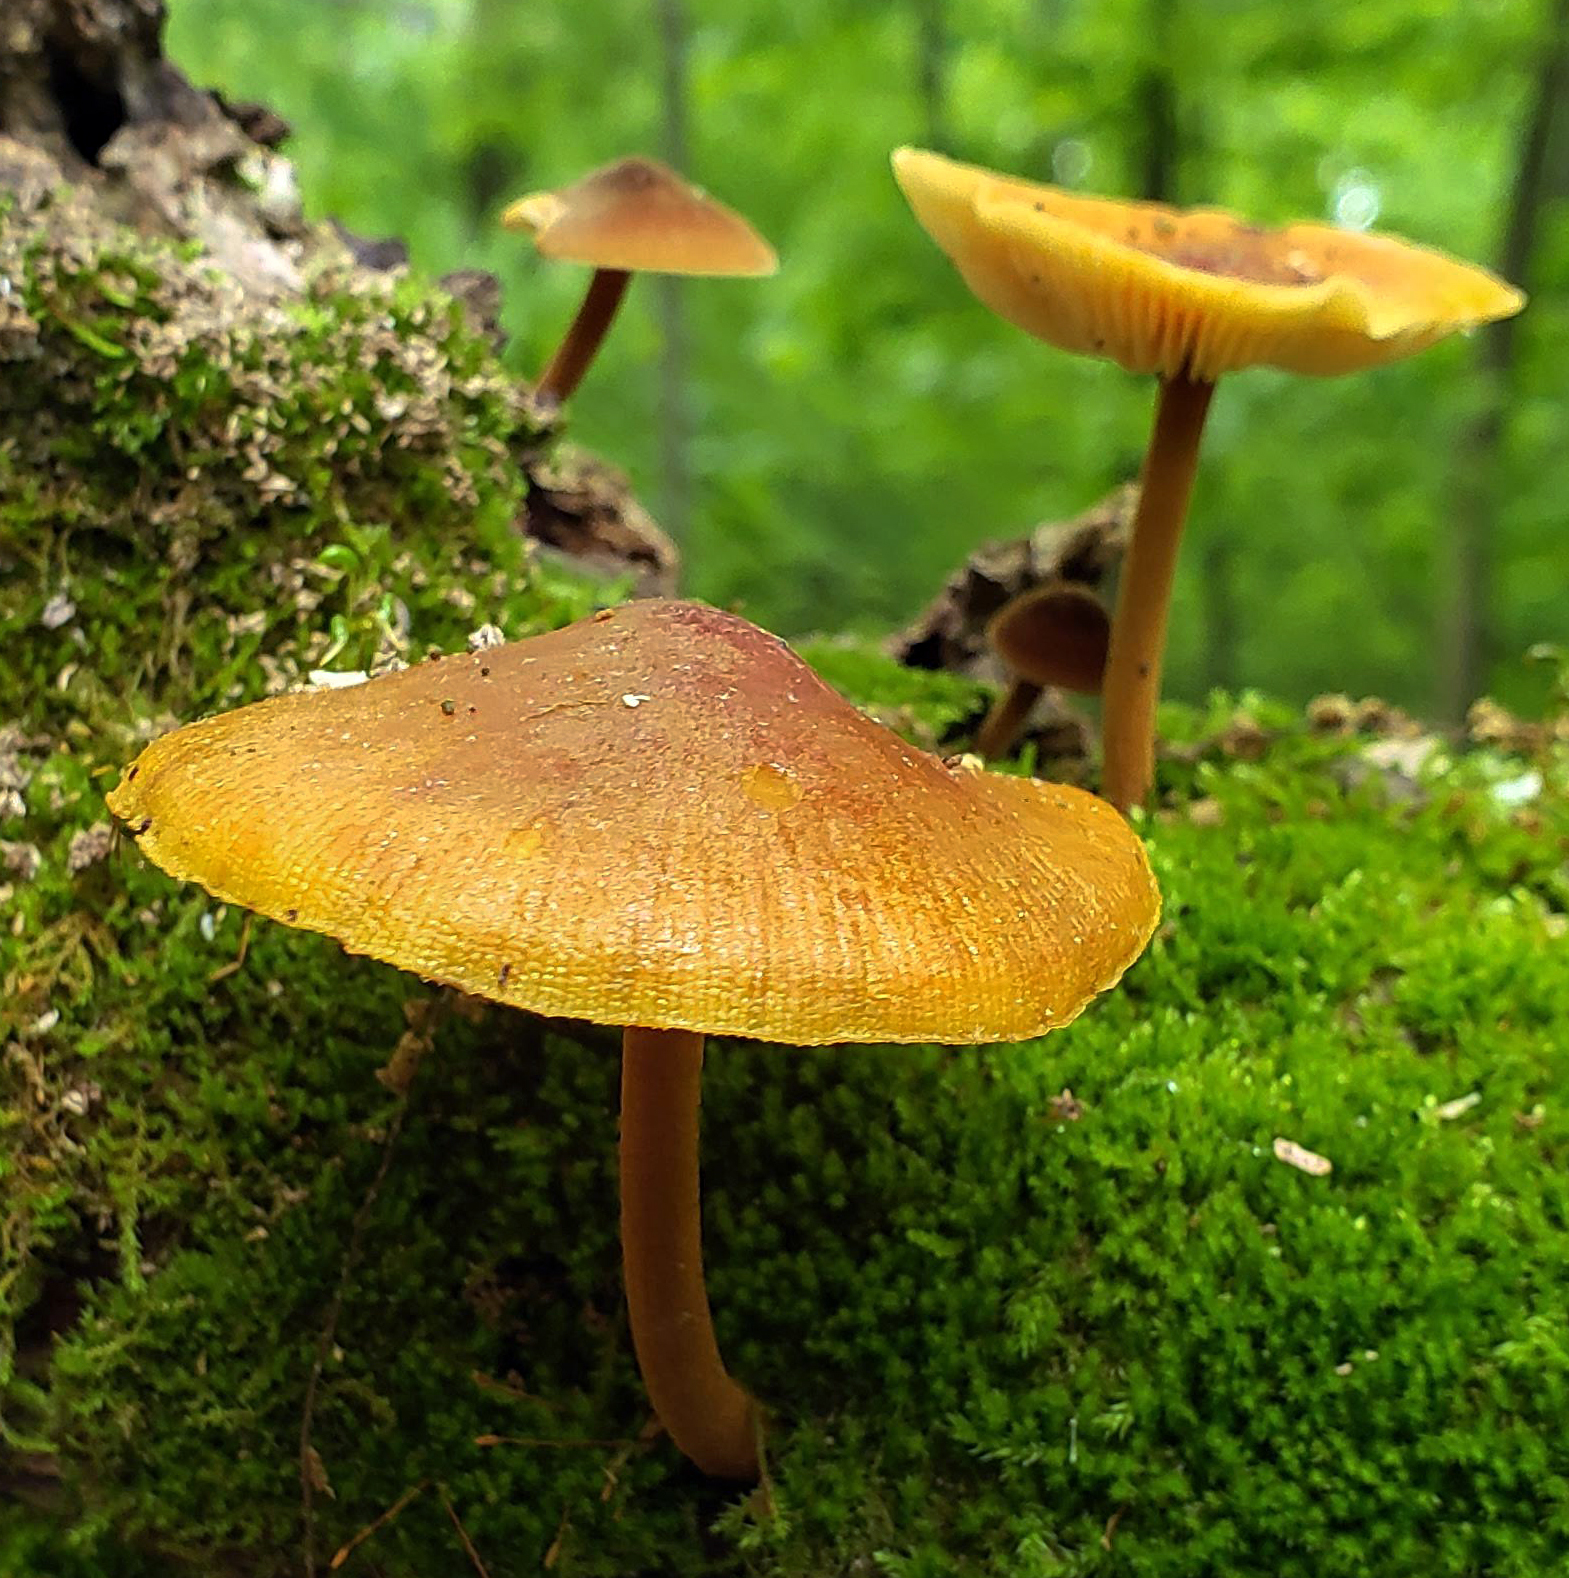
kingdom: Fungi
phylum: Basidiomycota
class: Agaricomycetes
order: Agaricales
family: Mycenaceae
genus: Xeromphalina
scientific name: Xeromphalina tenuipes
